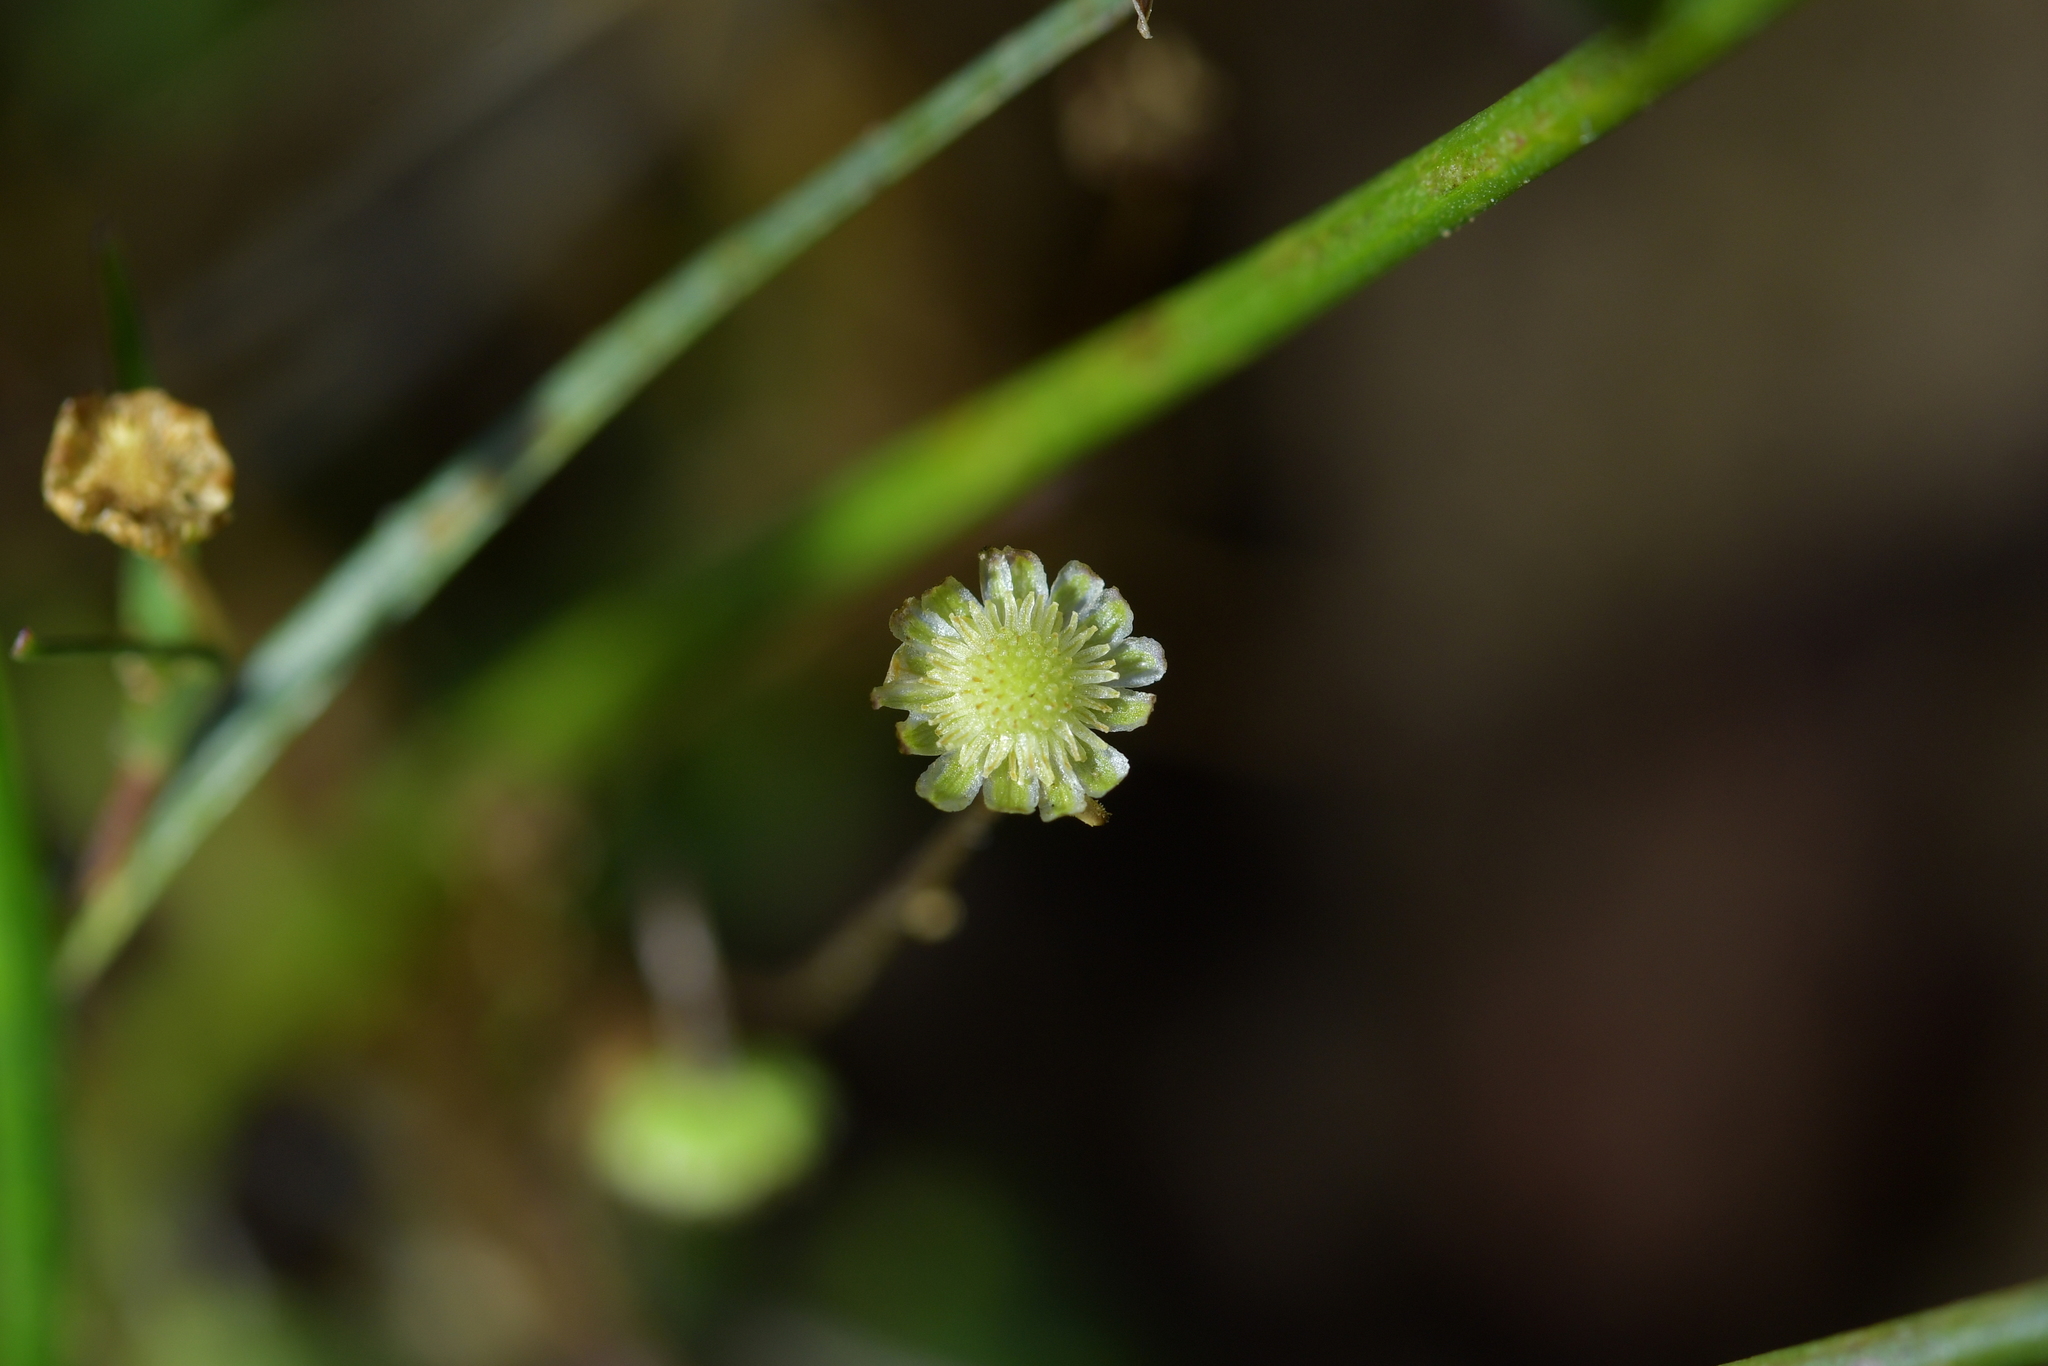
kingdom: Plantae
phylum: Tracheophyta
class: Magnoliopsida
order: Asterales
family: Asteraceae
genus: Cotula
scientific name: Cotula australis
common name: Australian waterbuttons
